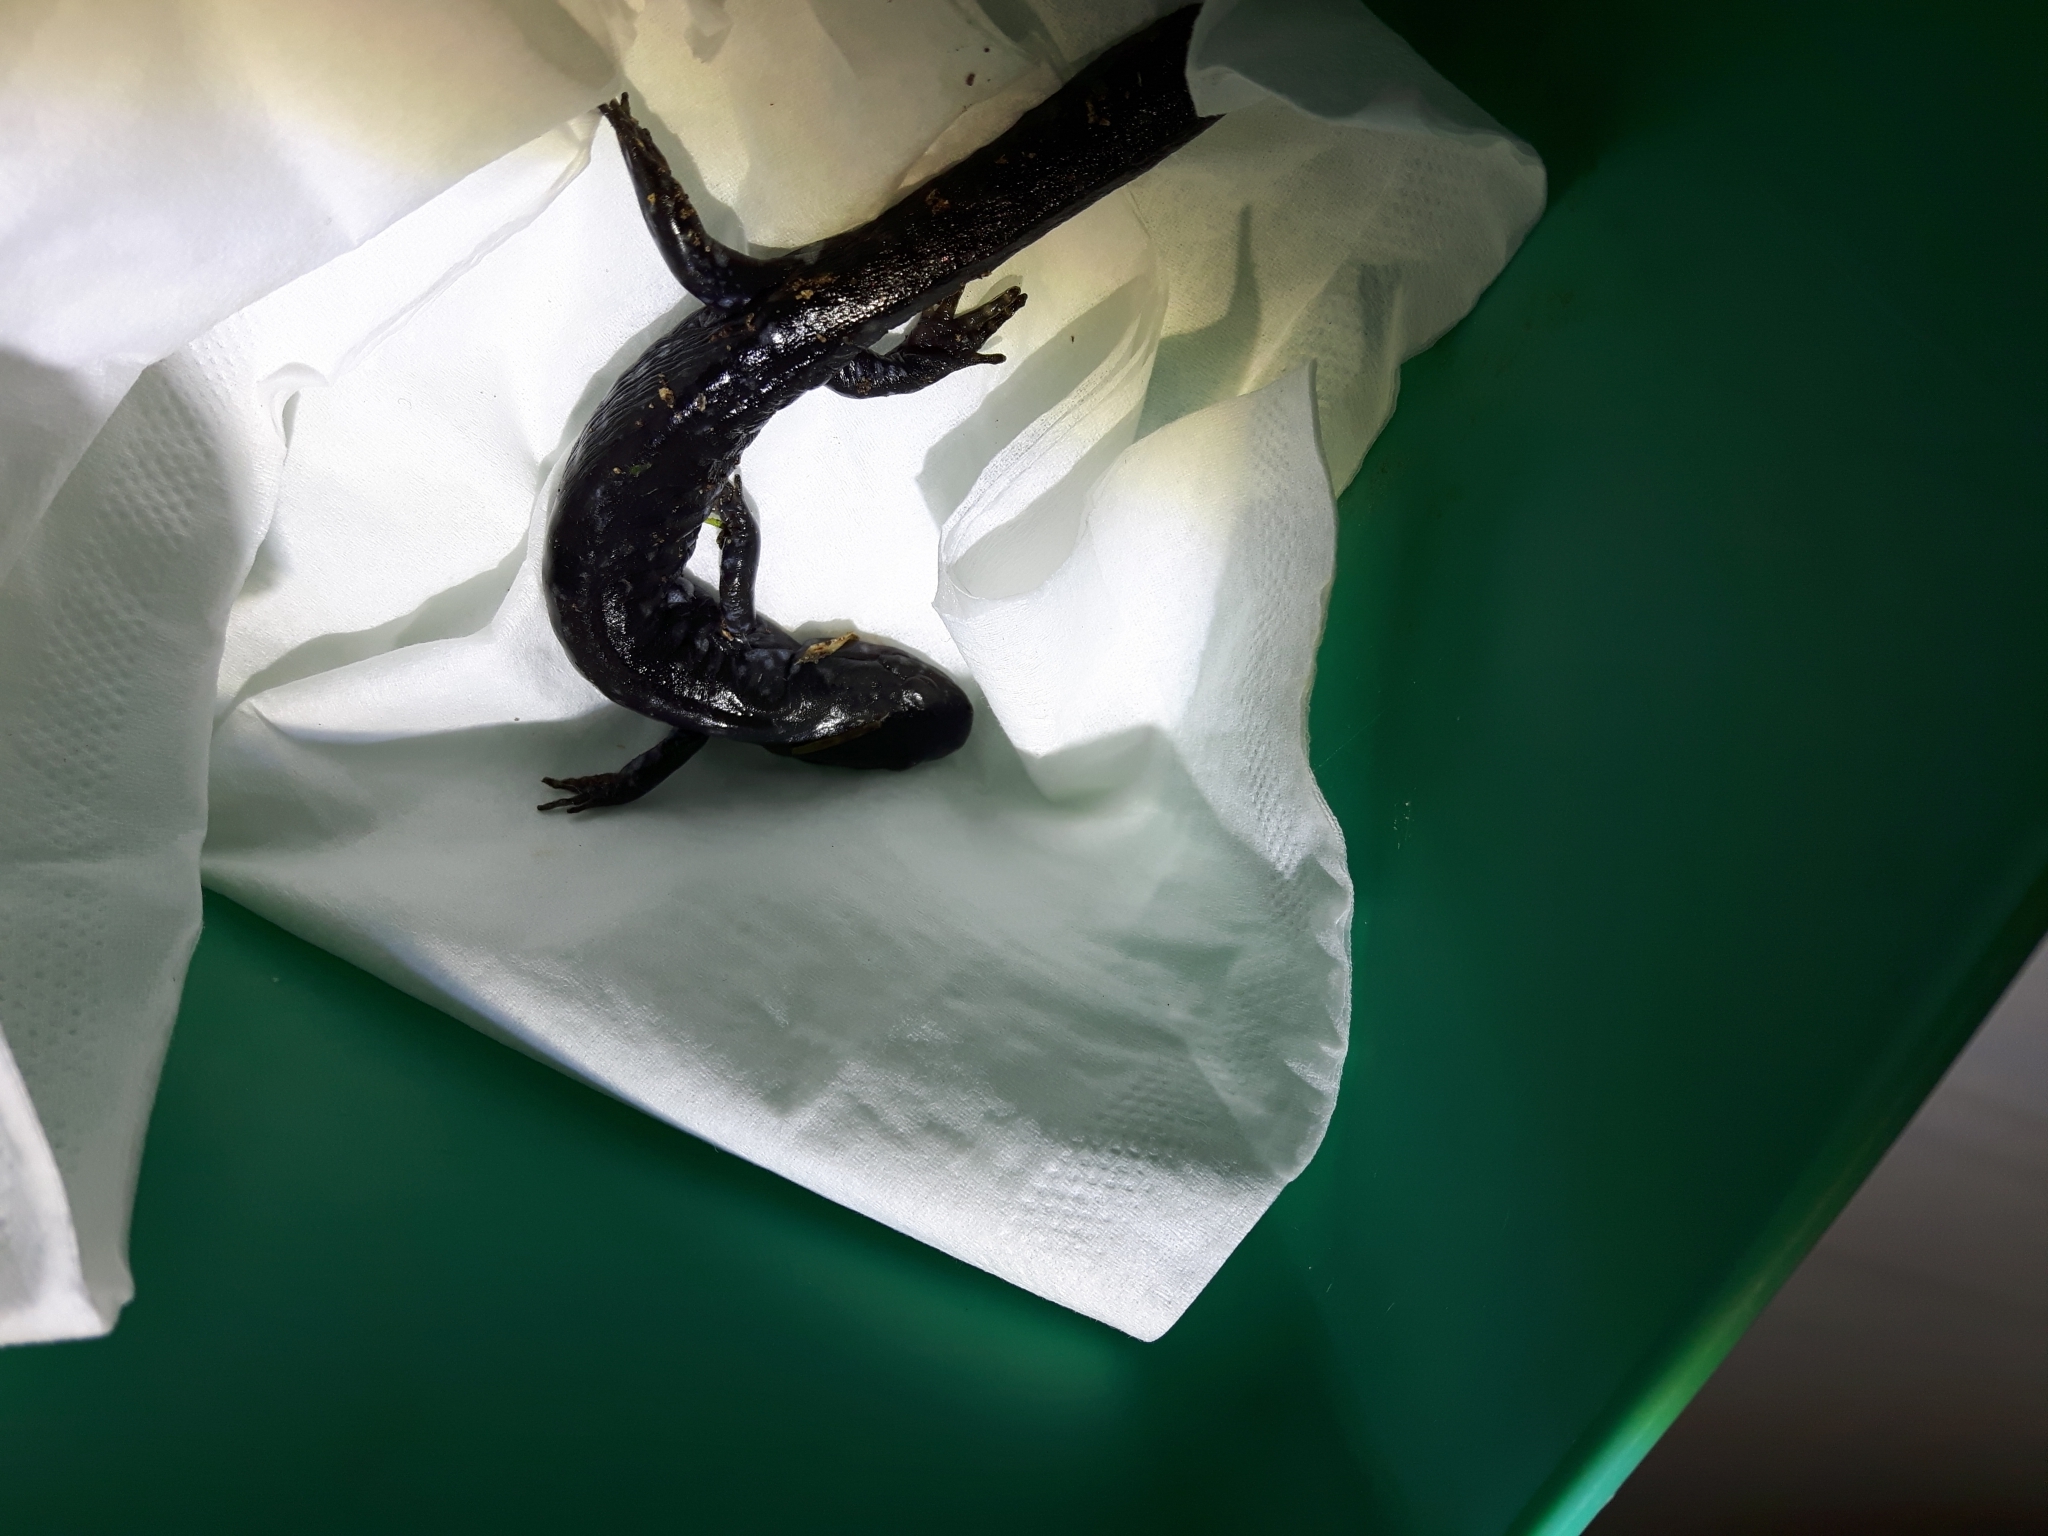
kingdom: Animalia
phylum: Chordata
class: Amphibia
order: Caudata
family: Ambystomatidae
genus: Ambystoma
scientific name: Ambystoma laterale
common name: Blue-spotted salamander
